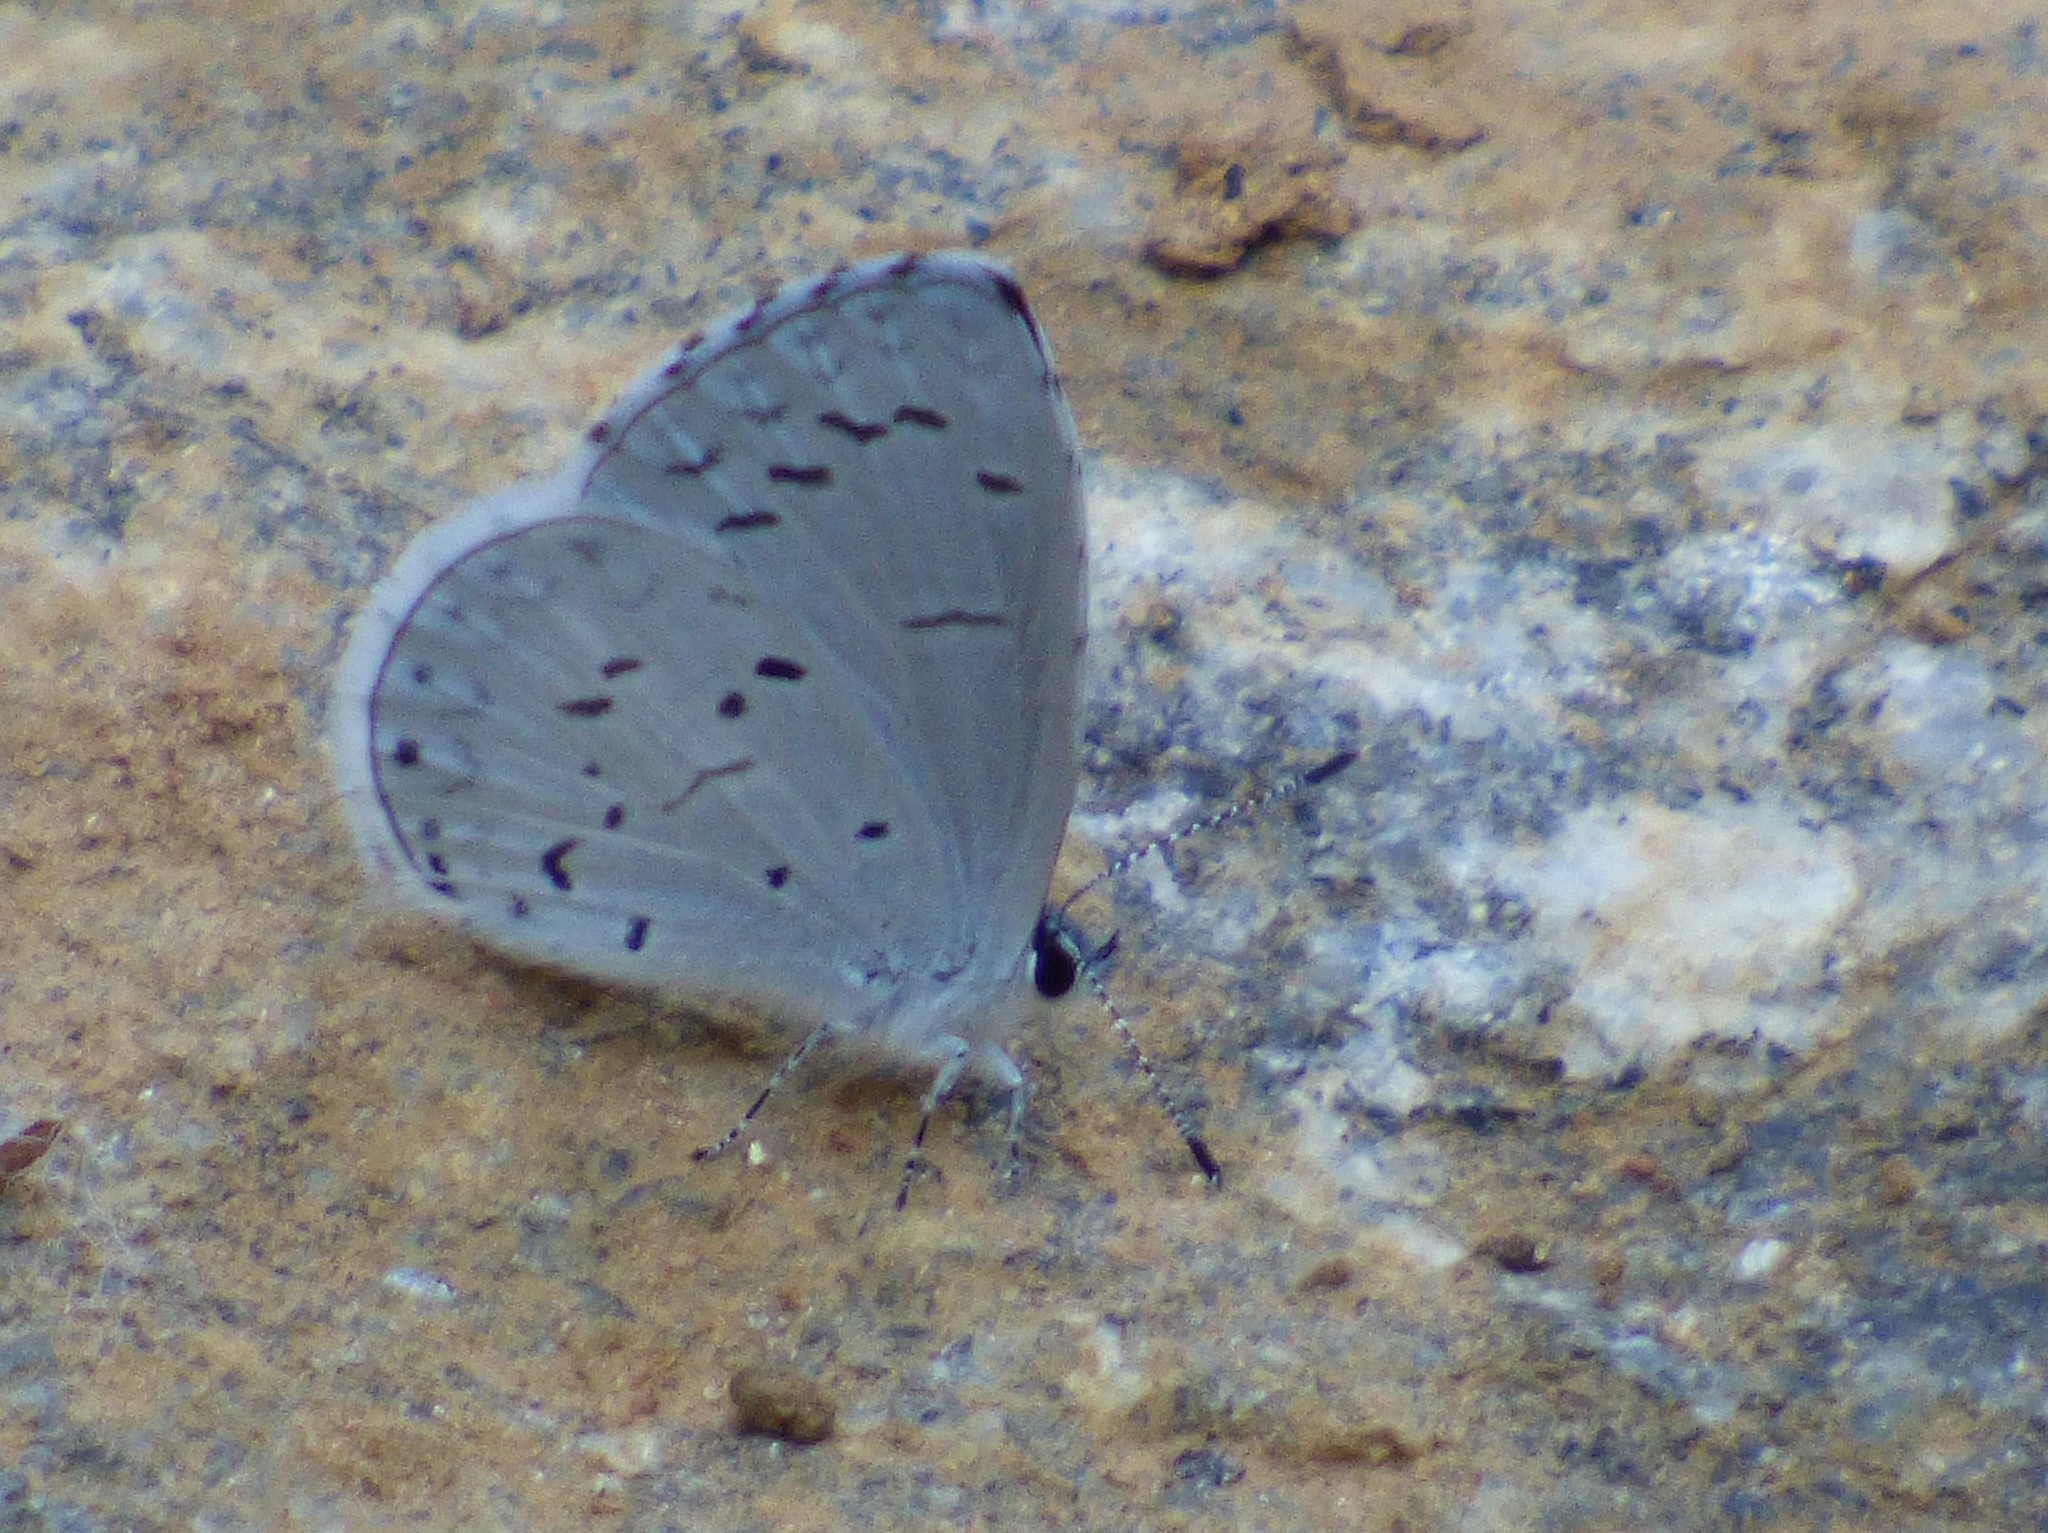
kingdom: Animalia
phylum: Arthropoda
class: Insecta
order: Lepidoptera
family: Lycaenidae
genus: Cyaniris
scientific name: Cyaniris neglecta
